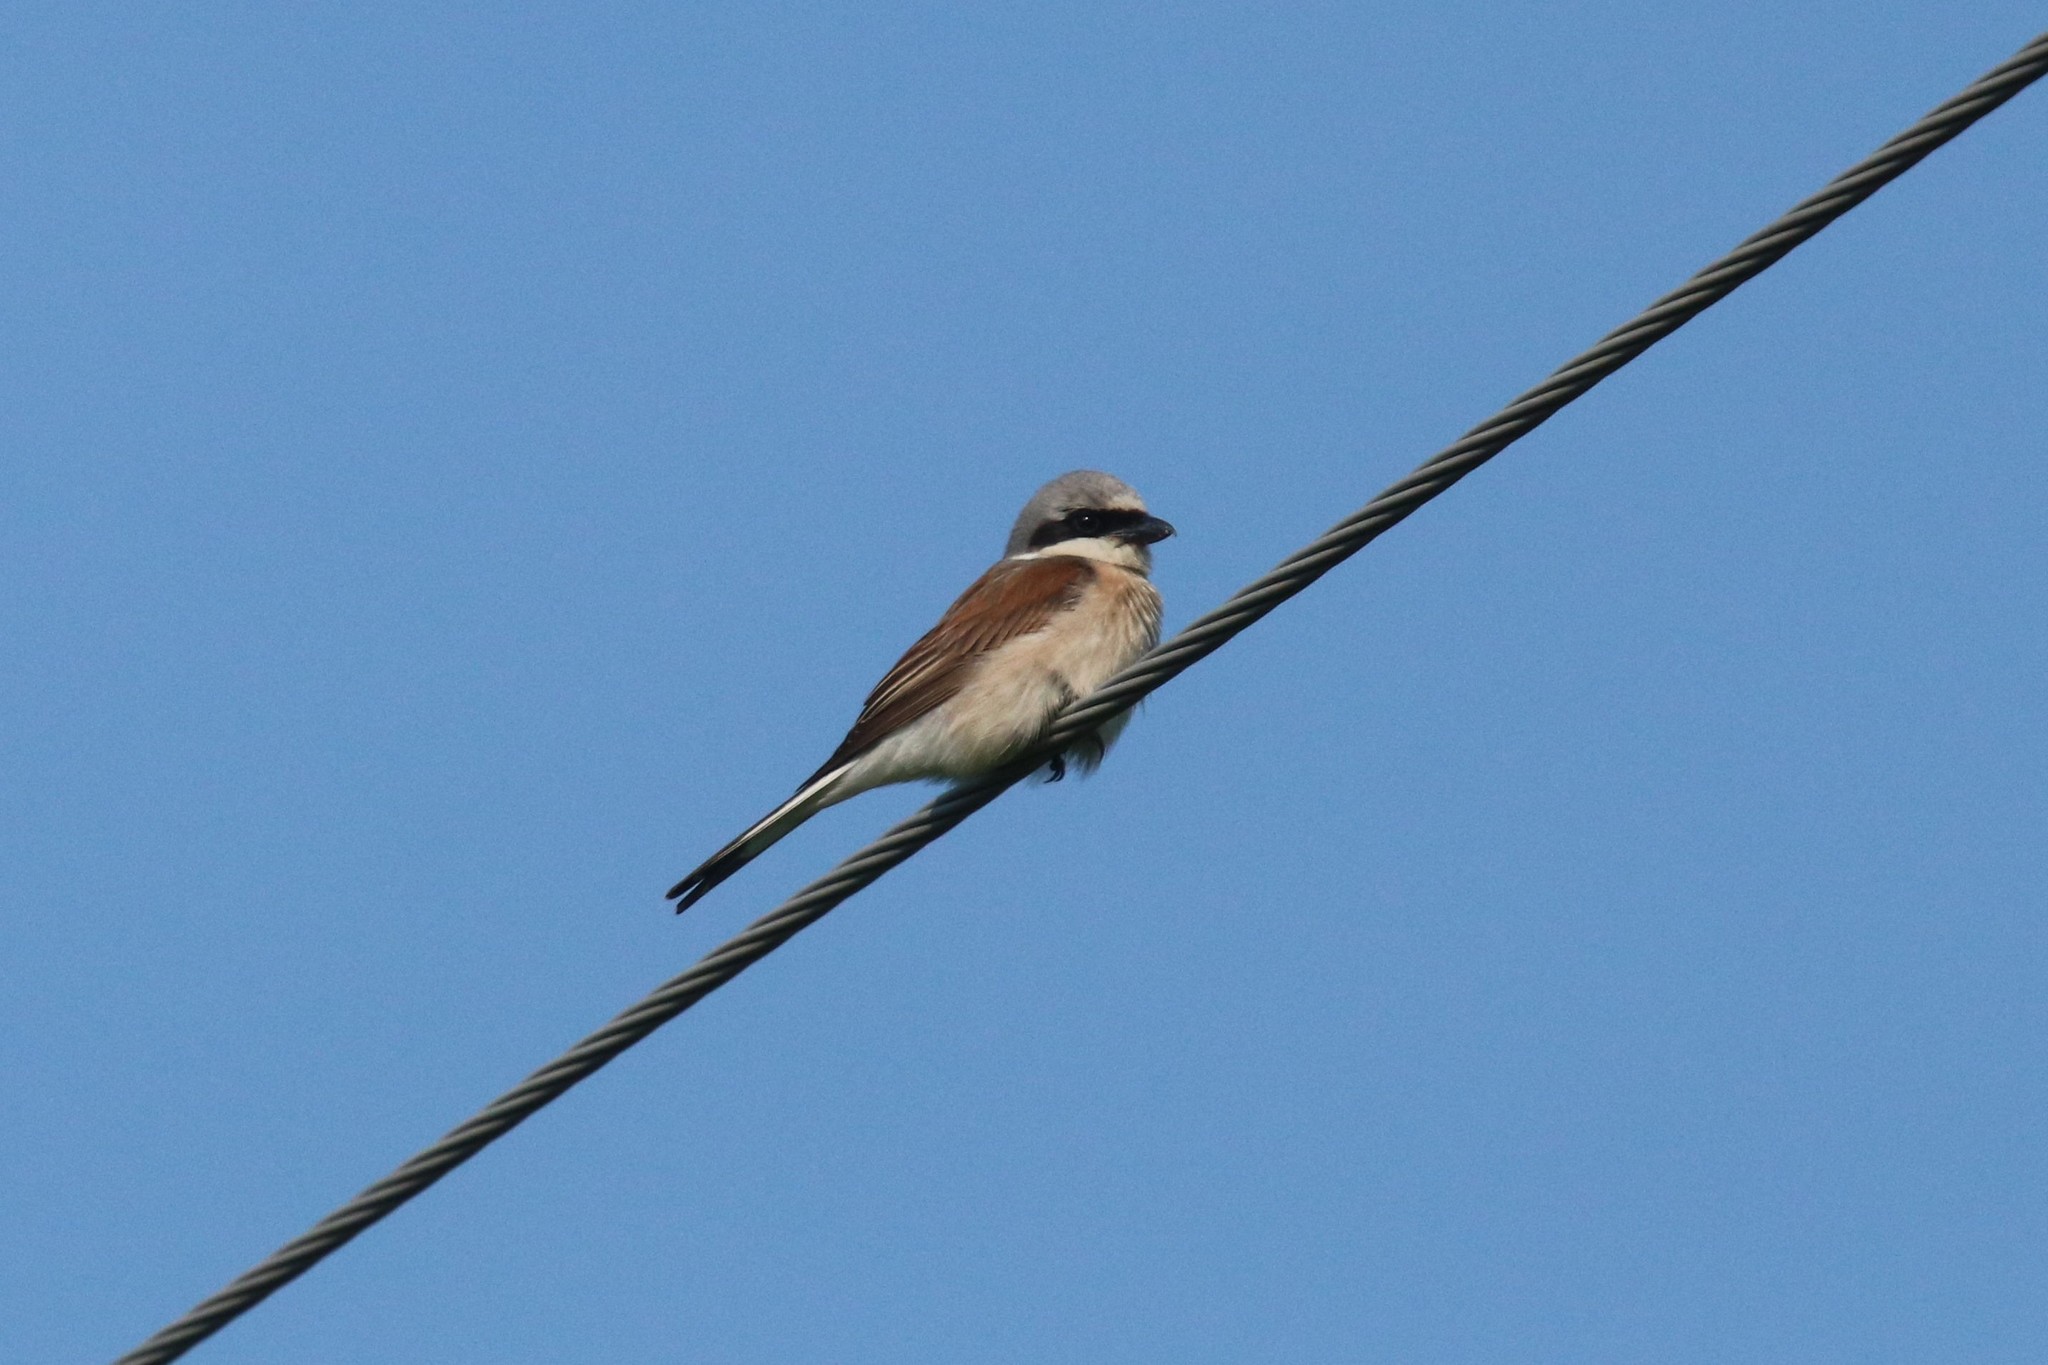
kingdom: Animalia
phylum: Chordata
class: Aves
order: Passeriformes
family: Laniidae
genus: Lanius
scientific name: Lanius collurio
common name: Red-backed shrike
